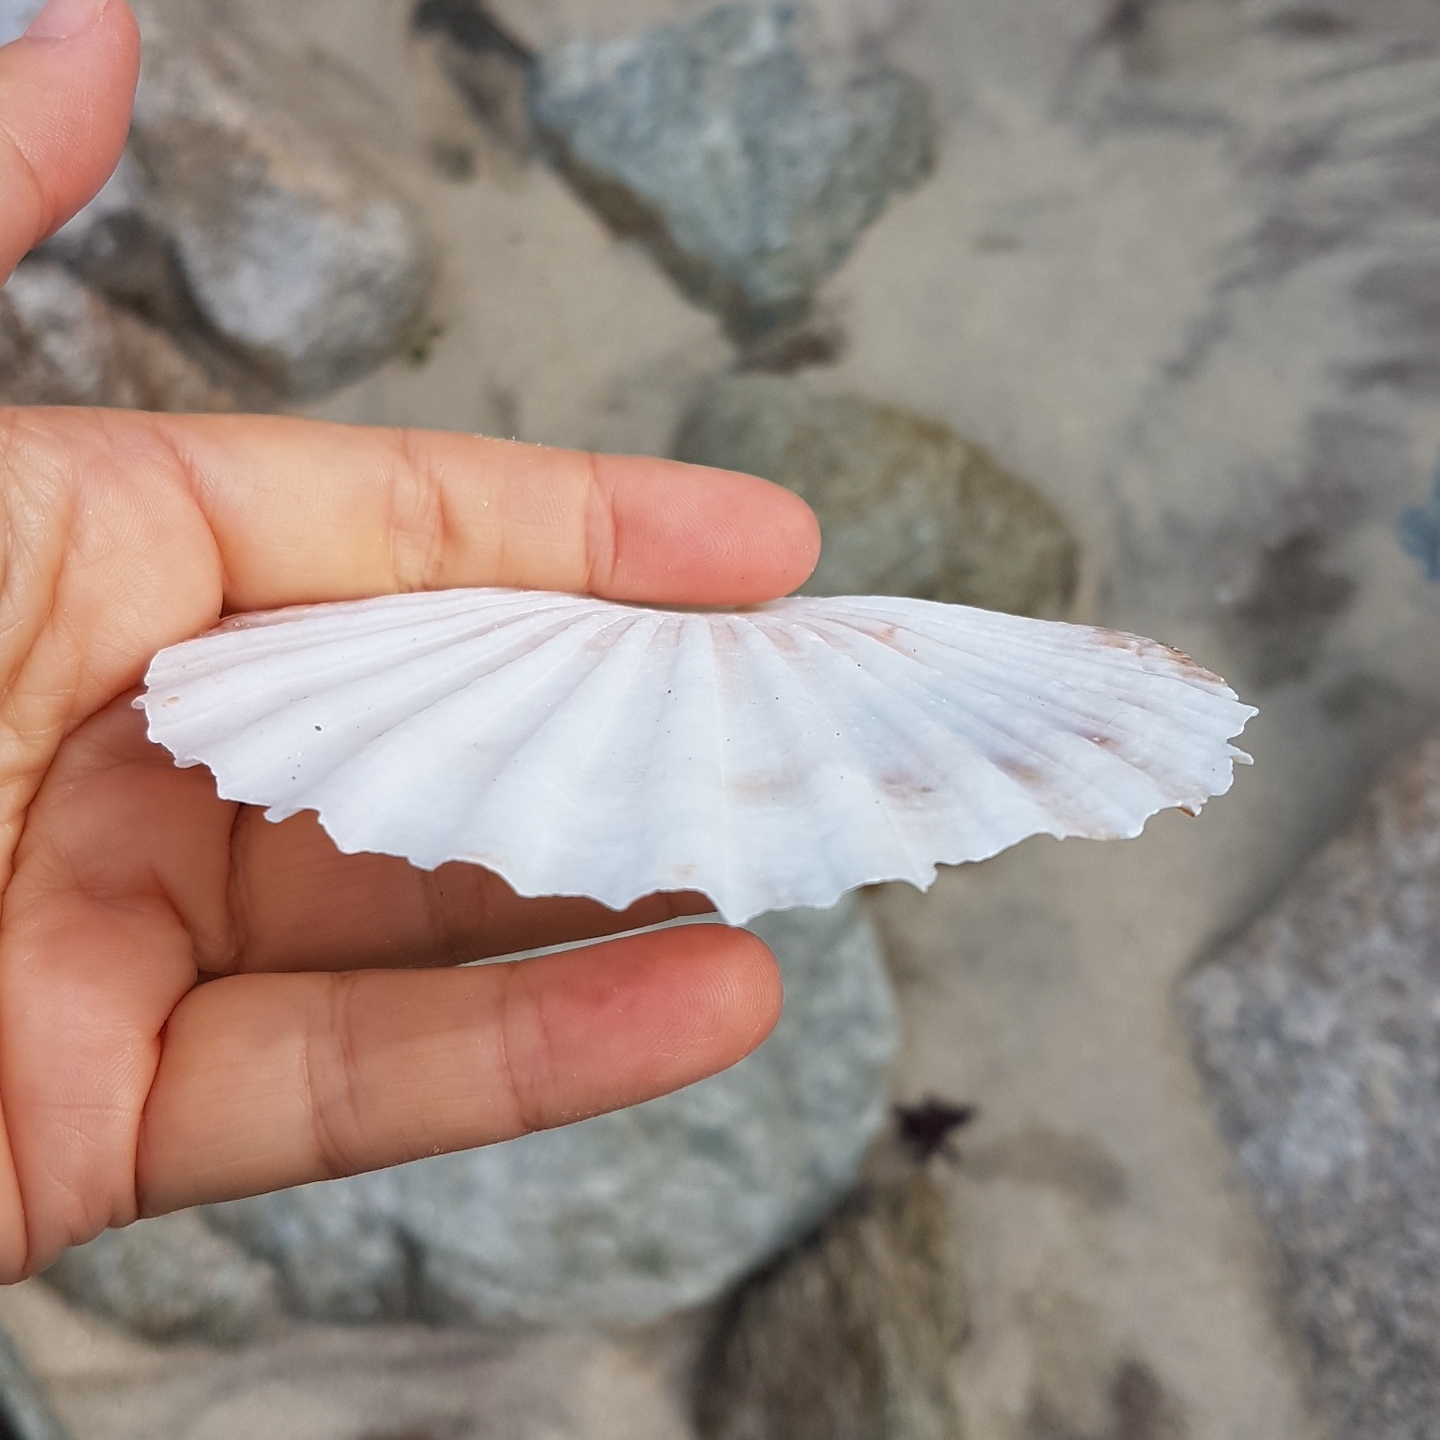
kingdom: Animalia
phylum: Mollusca
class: Bivalvia
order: Pectinida
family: Pectinidae
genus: Pecten
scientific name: Pecten maximus
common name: Great scallop
